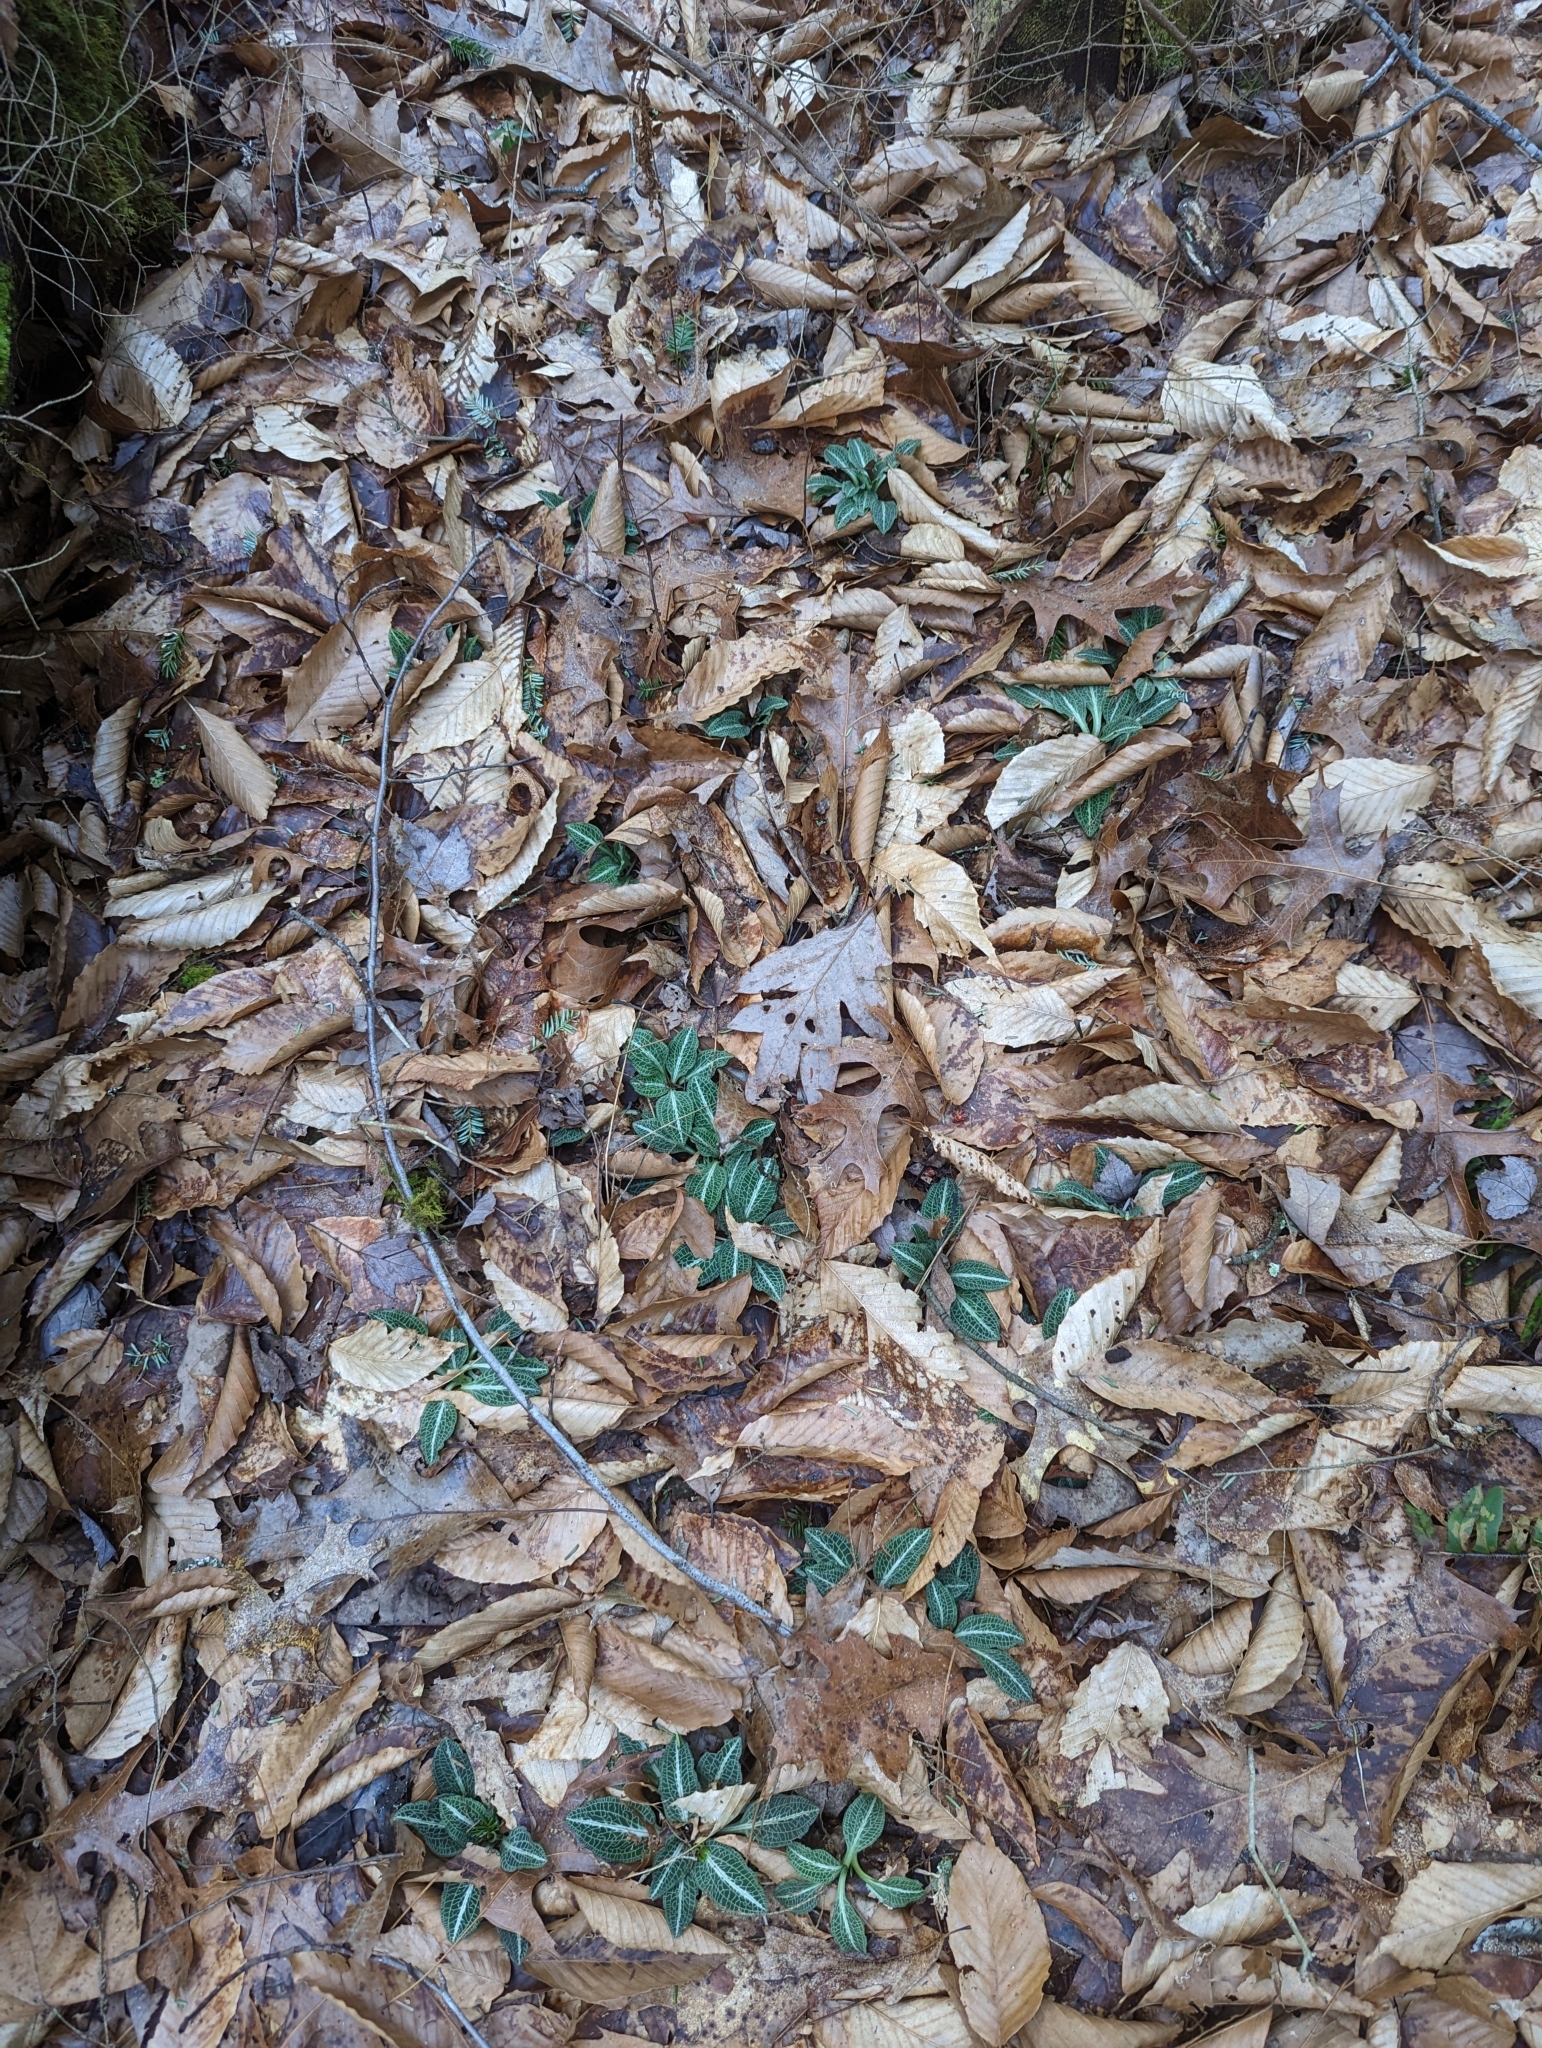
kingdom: Plantae
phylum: Tracheophyta
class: Liliopsida
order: Asparagales
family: Orchidaceae
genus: Goodyera
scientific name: Goodyera pubescens
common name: Downy rattlesnake-plantain
